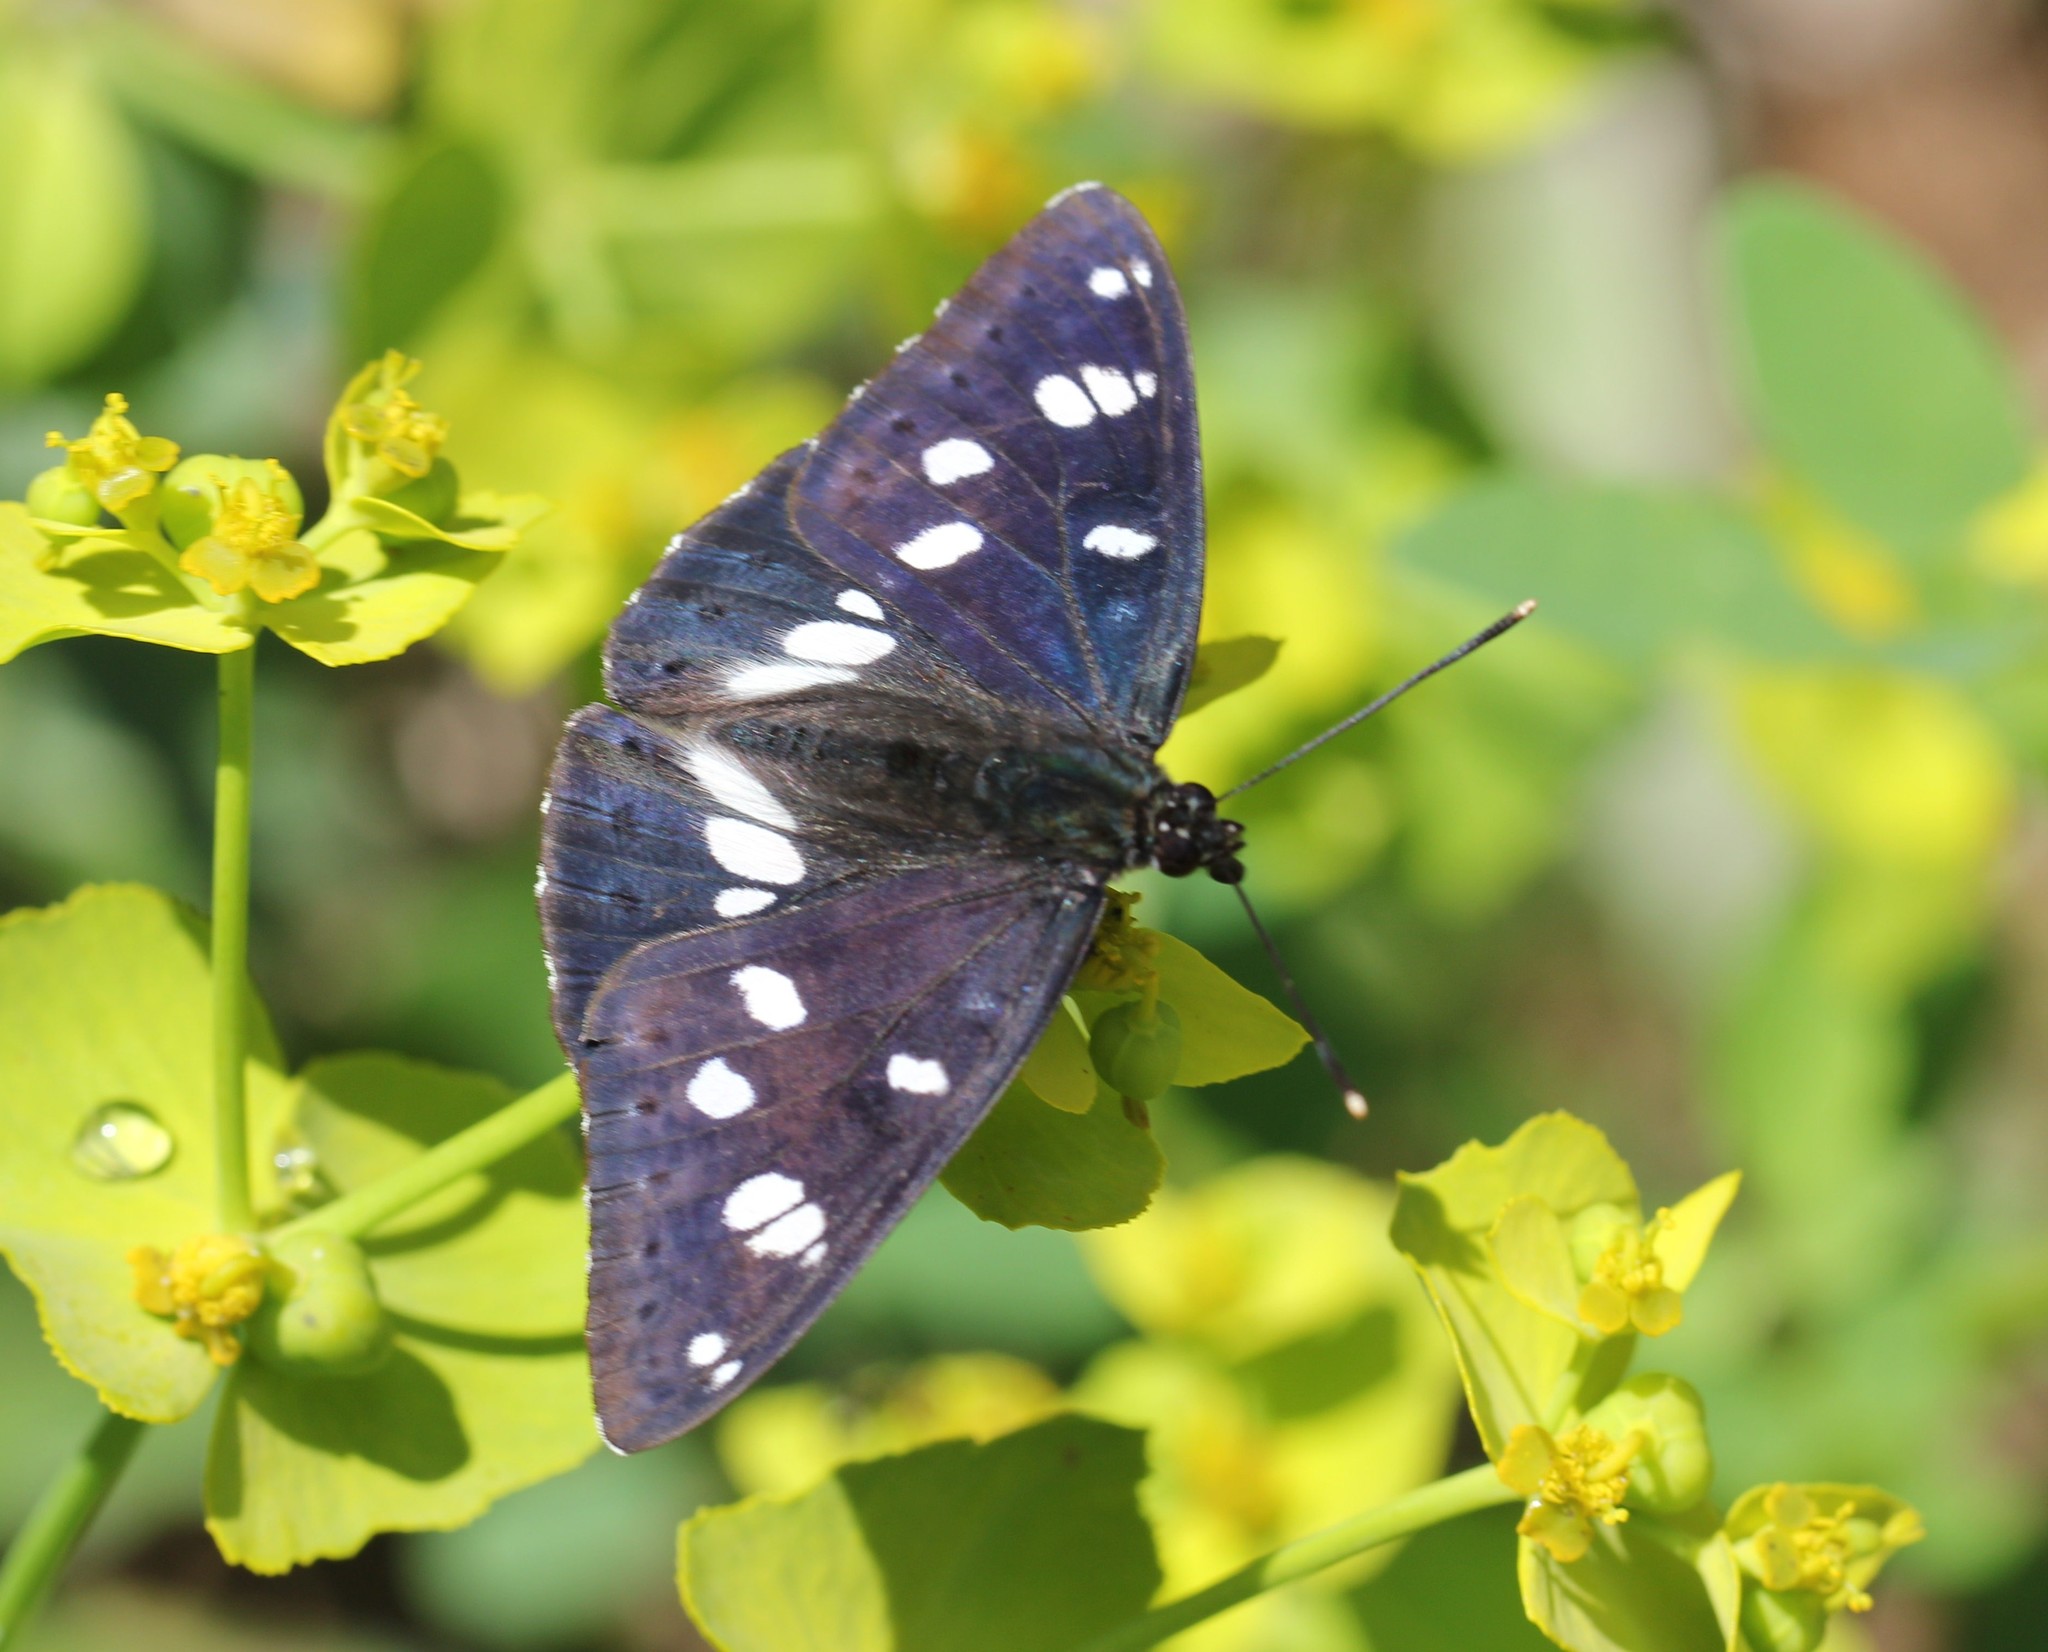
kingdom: Animalia
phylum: Arthropoda
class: Insecta
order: Lepidoptera
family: Nymphalidae
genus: Limenitis
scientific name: Limenitis reducta
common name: Southern white admiral
